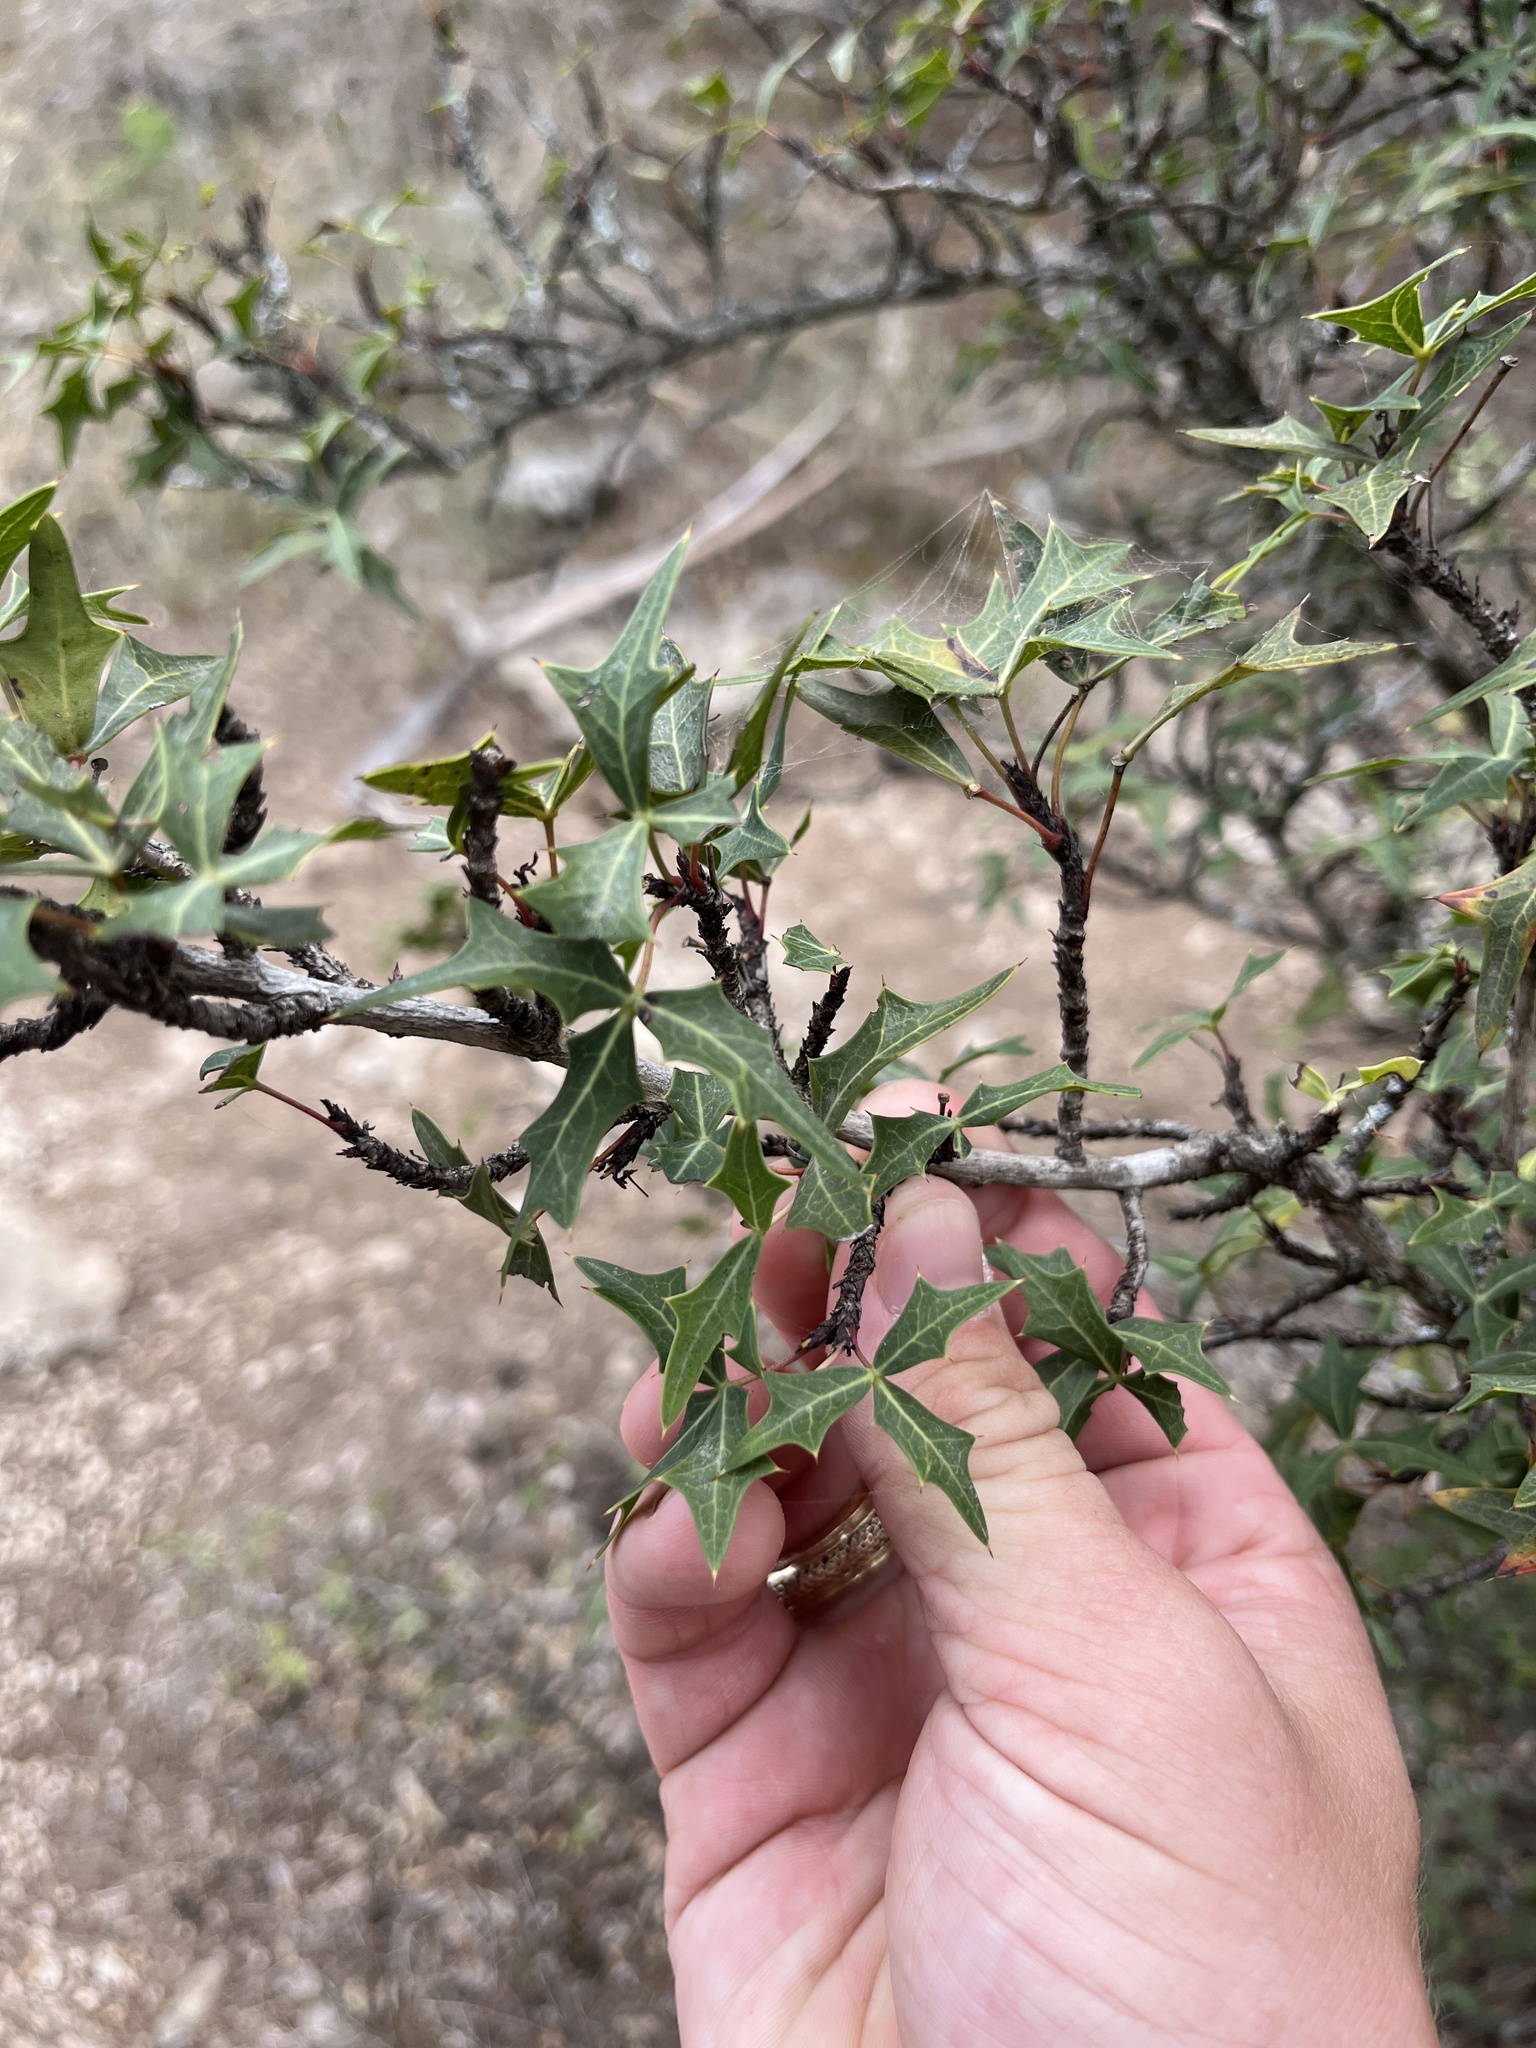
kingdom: Plantae
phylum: Tracheophyta
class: Magnoliopsida
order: Ranunculales
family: Berberidaceae
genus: Alloberberis
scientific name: Alloberberis trifoliolata
